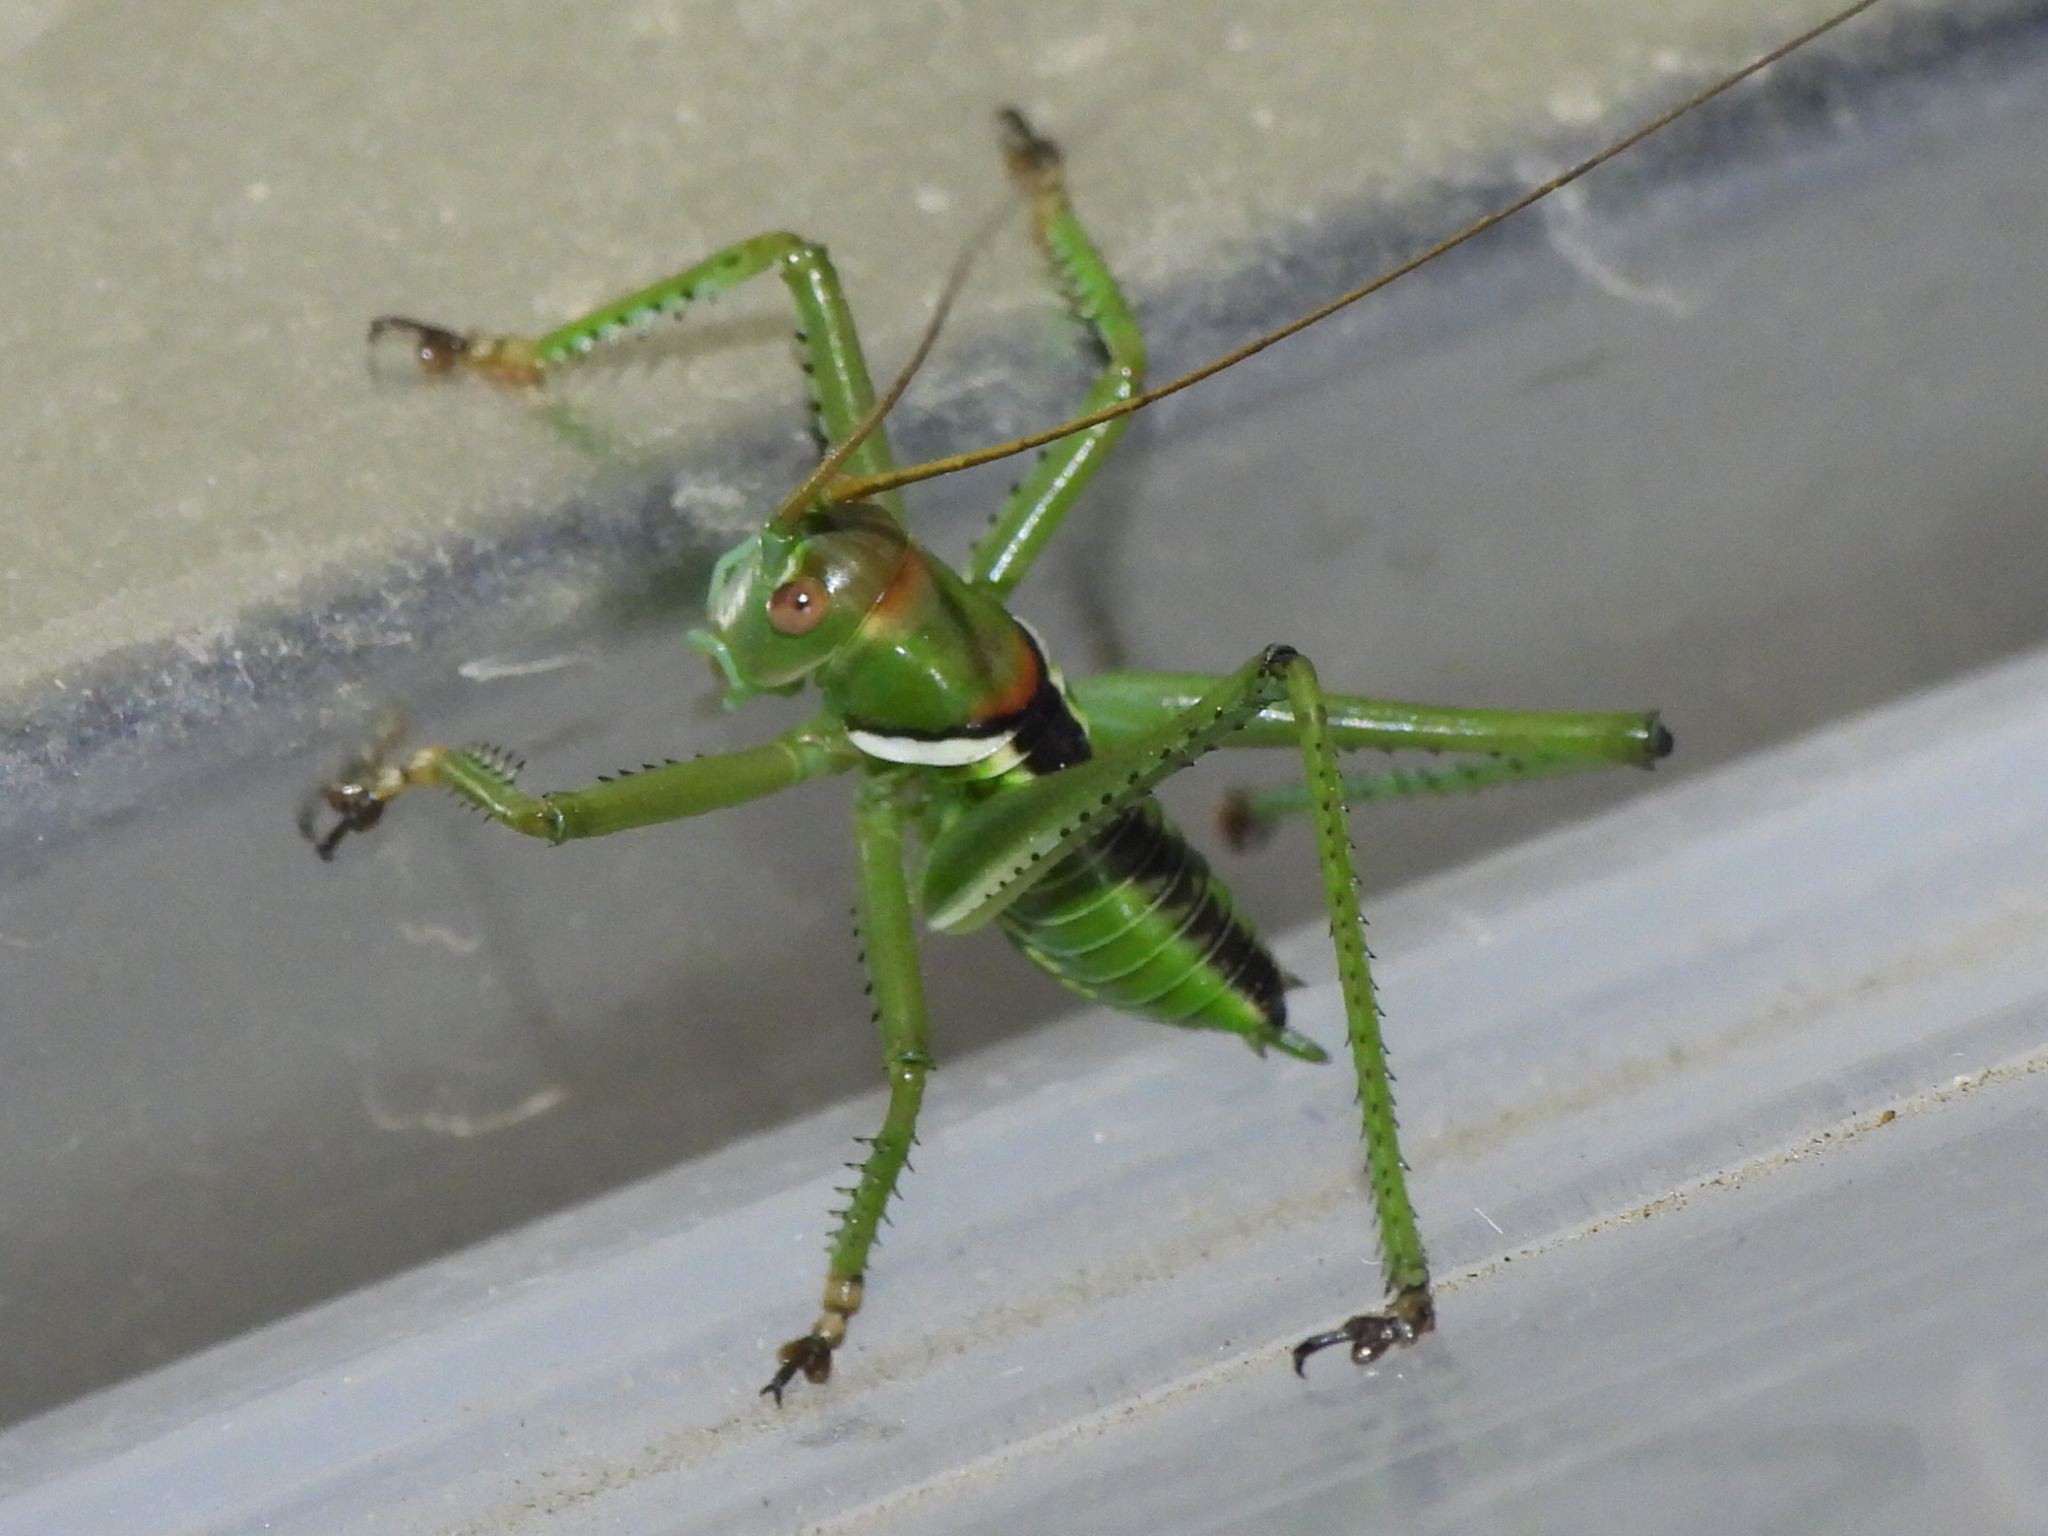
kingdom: Animalia
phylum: Arthropoda
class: Insecta
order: Orthoptera
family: Tettigoniidae
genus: Neobarrettia
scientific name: Neobarrettia spinosa
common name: Greater arid-land katydid
